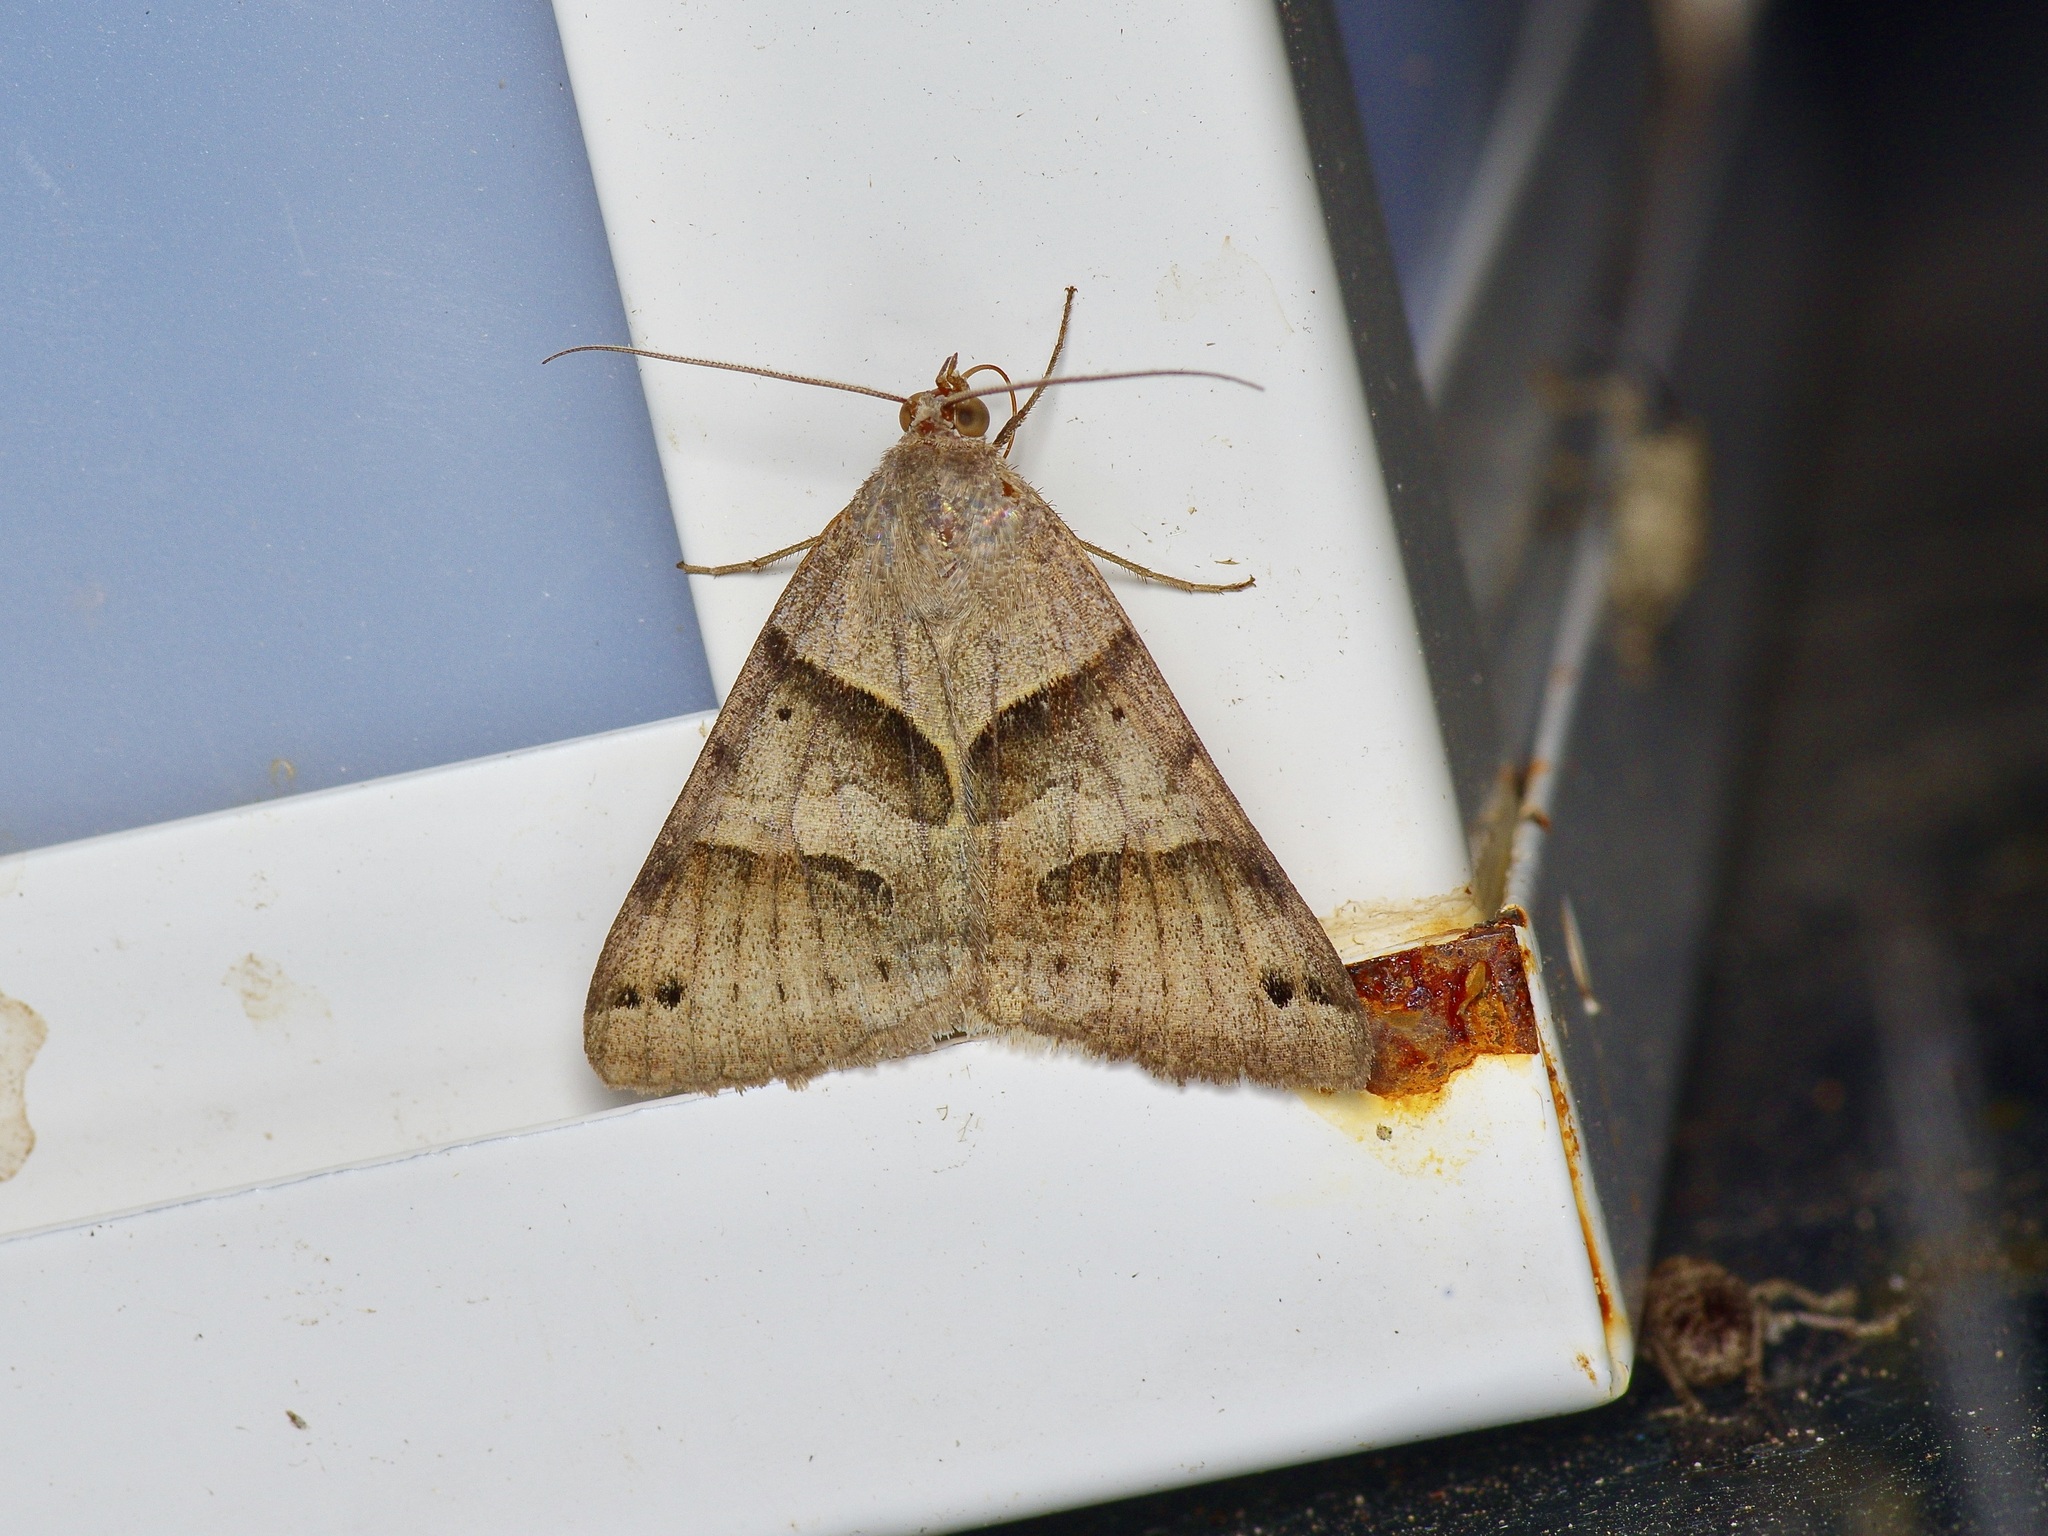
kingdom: Animalia
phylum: Arthropoda
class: Insecta
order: Lepidoptera
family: Erebidae
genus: Caenurgina
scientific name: Caenurgina erechtea
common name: Forage looper moth
